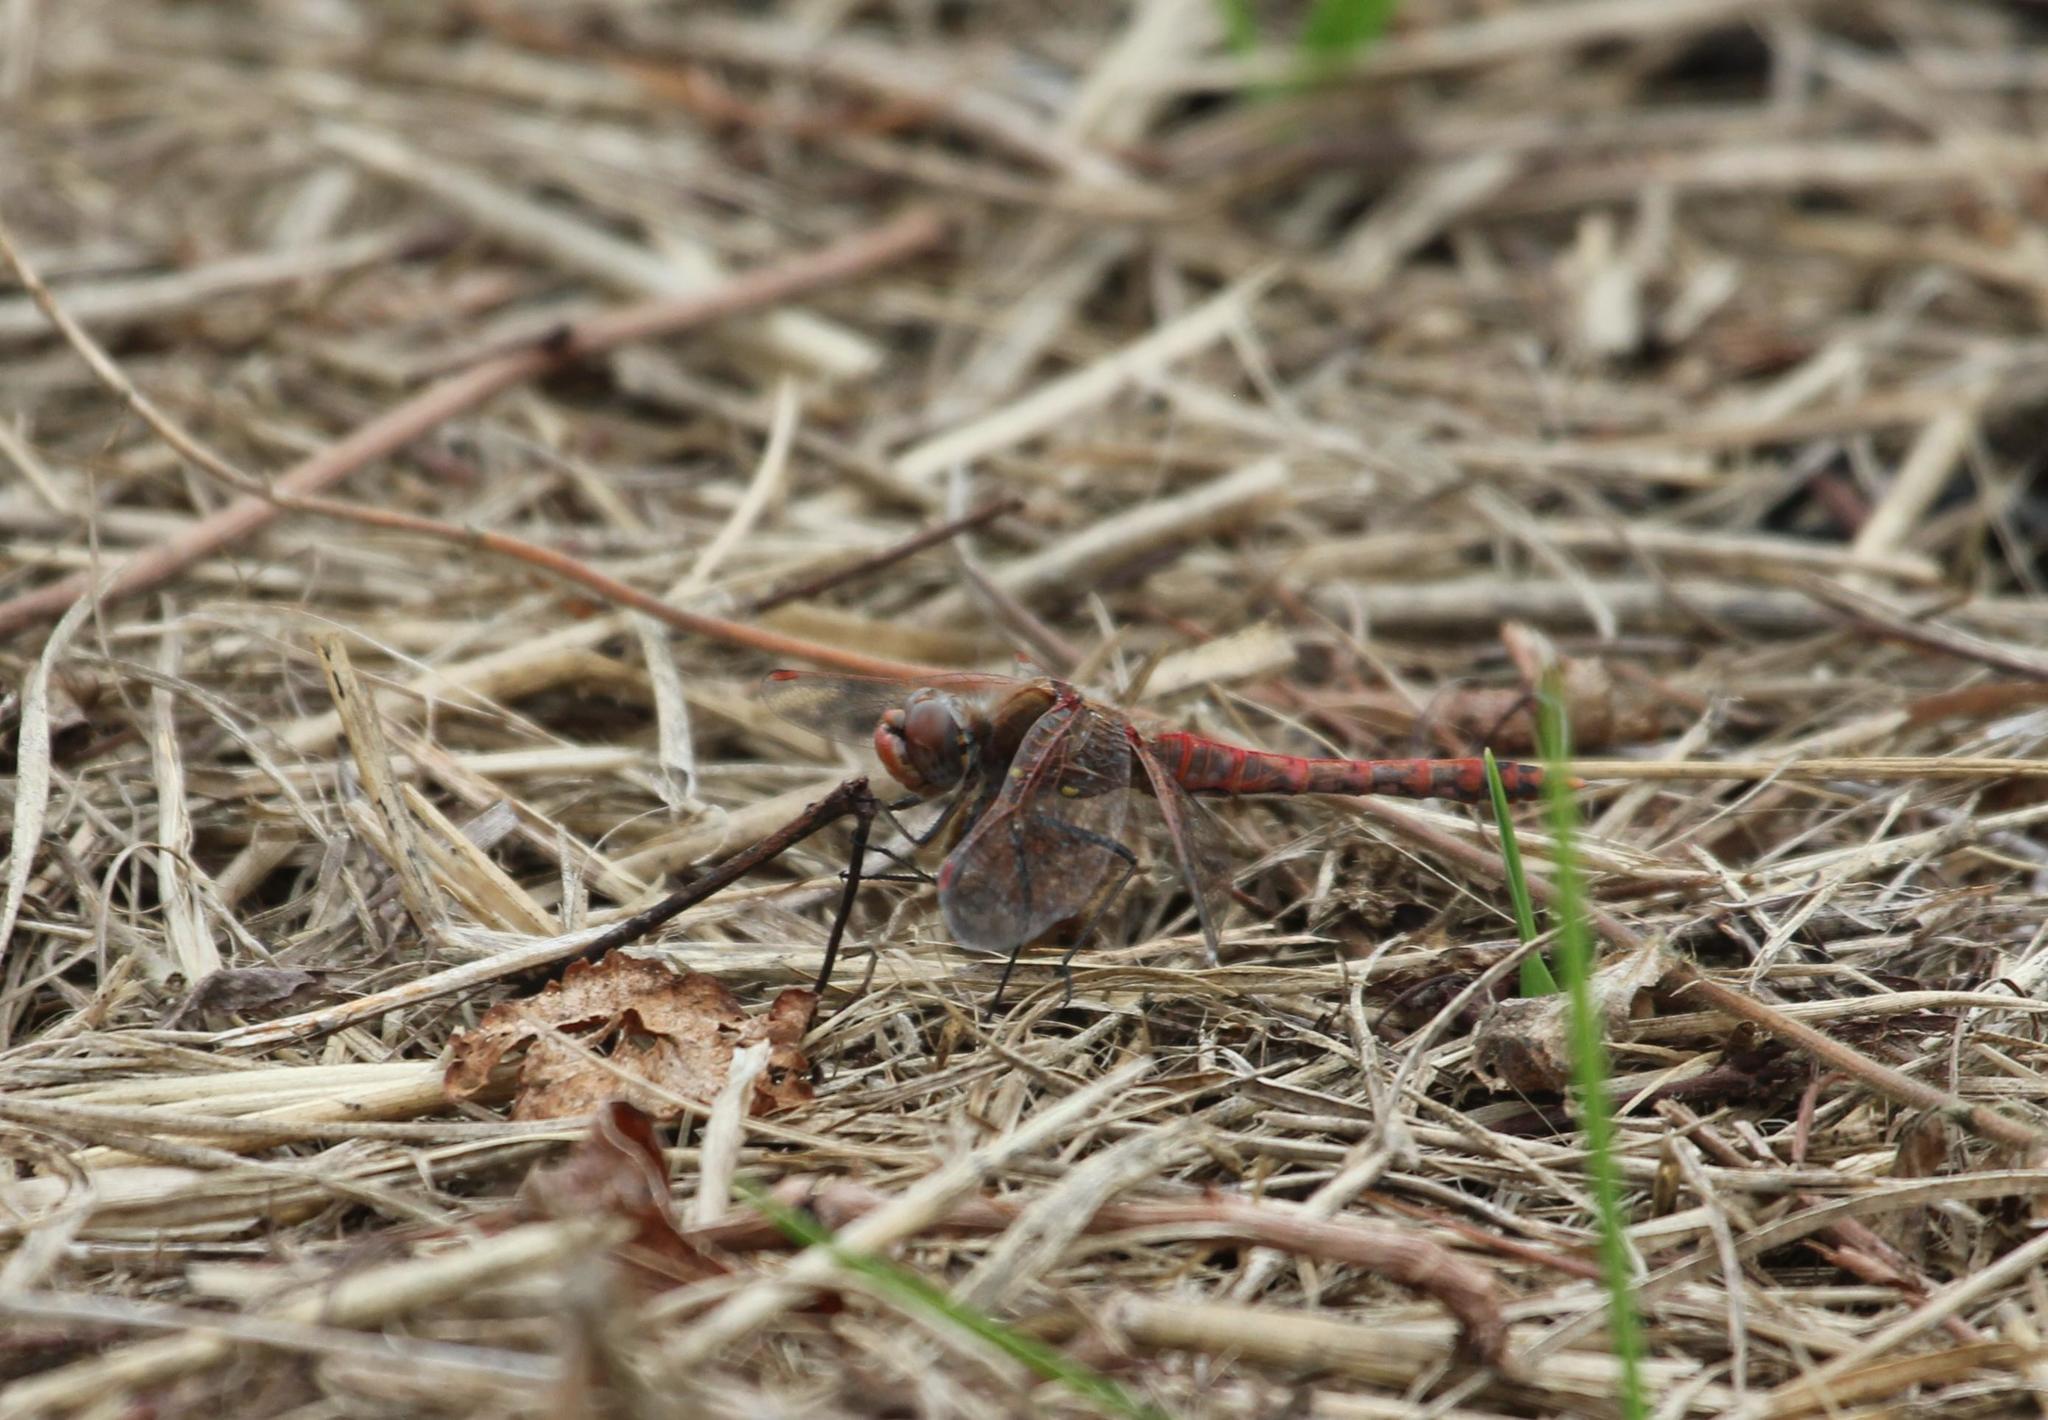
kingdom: Animalia
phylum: Arthropoda
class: Insecta
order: Odonata
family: Libellulidae
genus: Sympetrum
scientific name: Sympetrum corruptum
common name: Variegated meadowhawk
